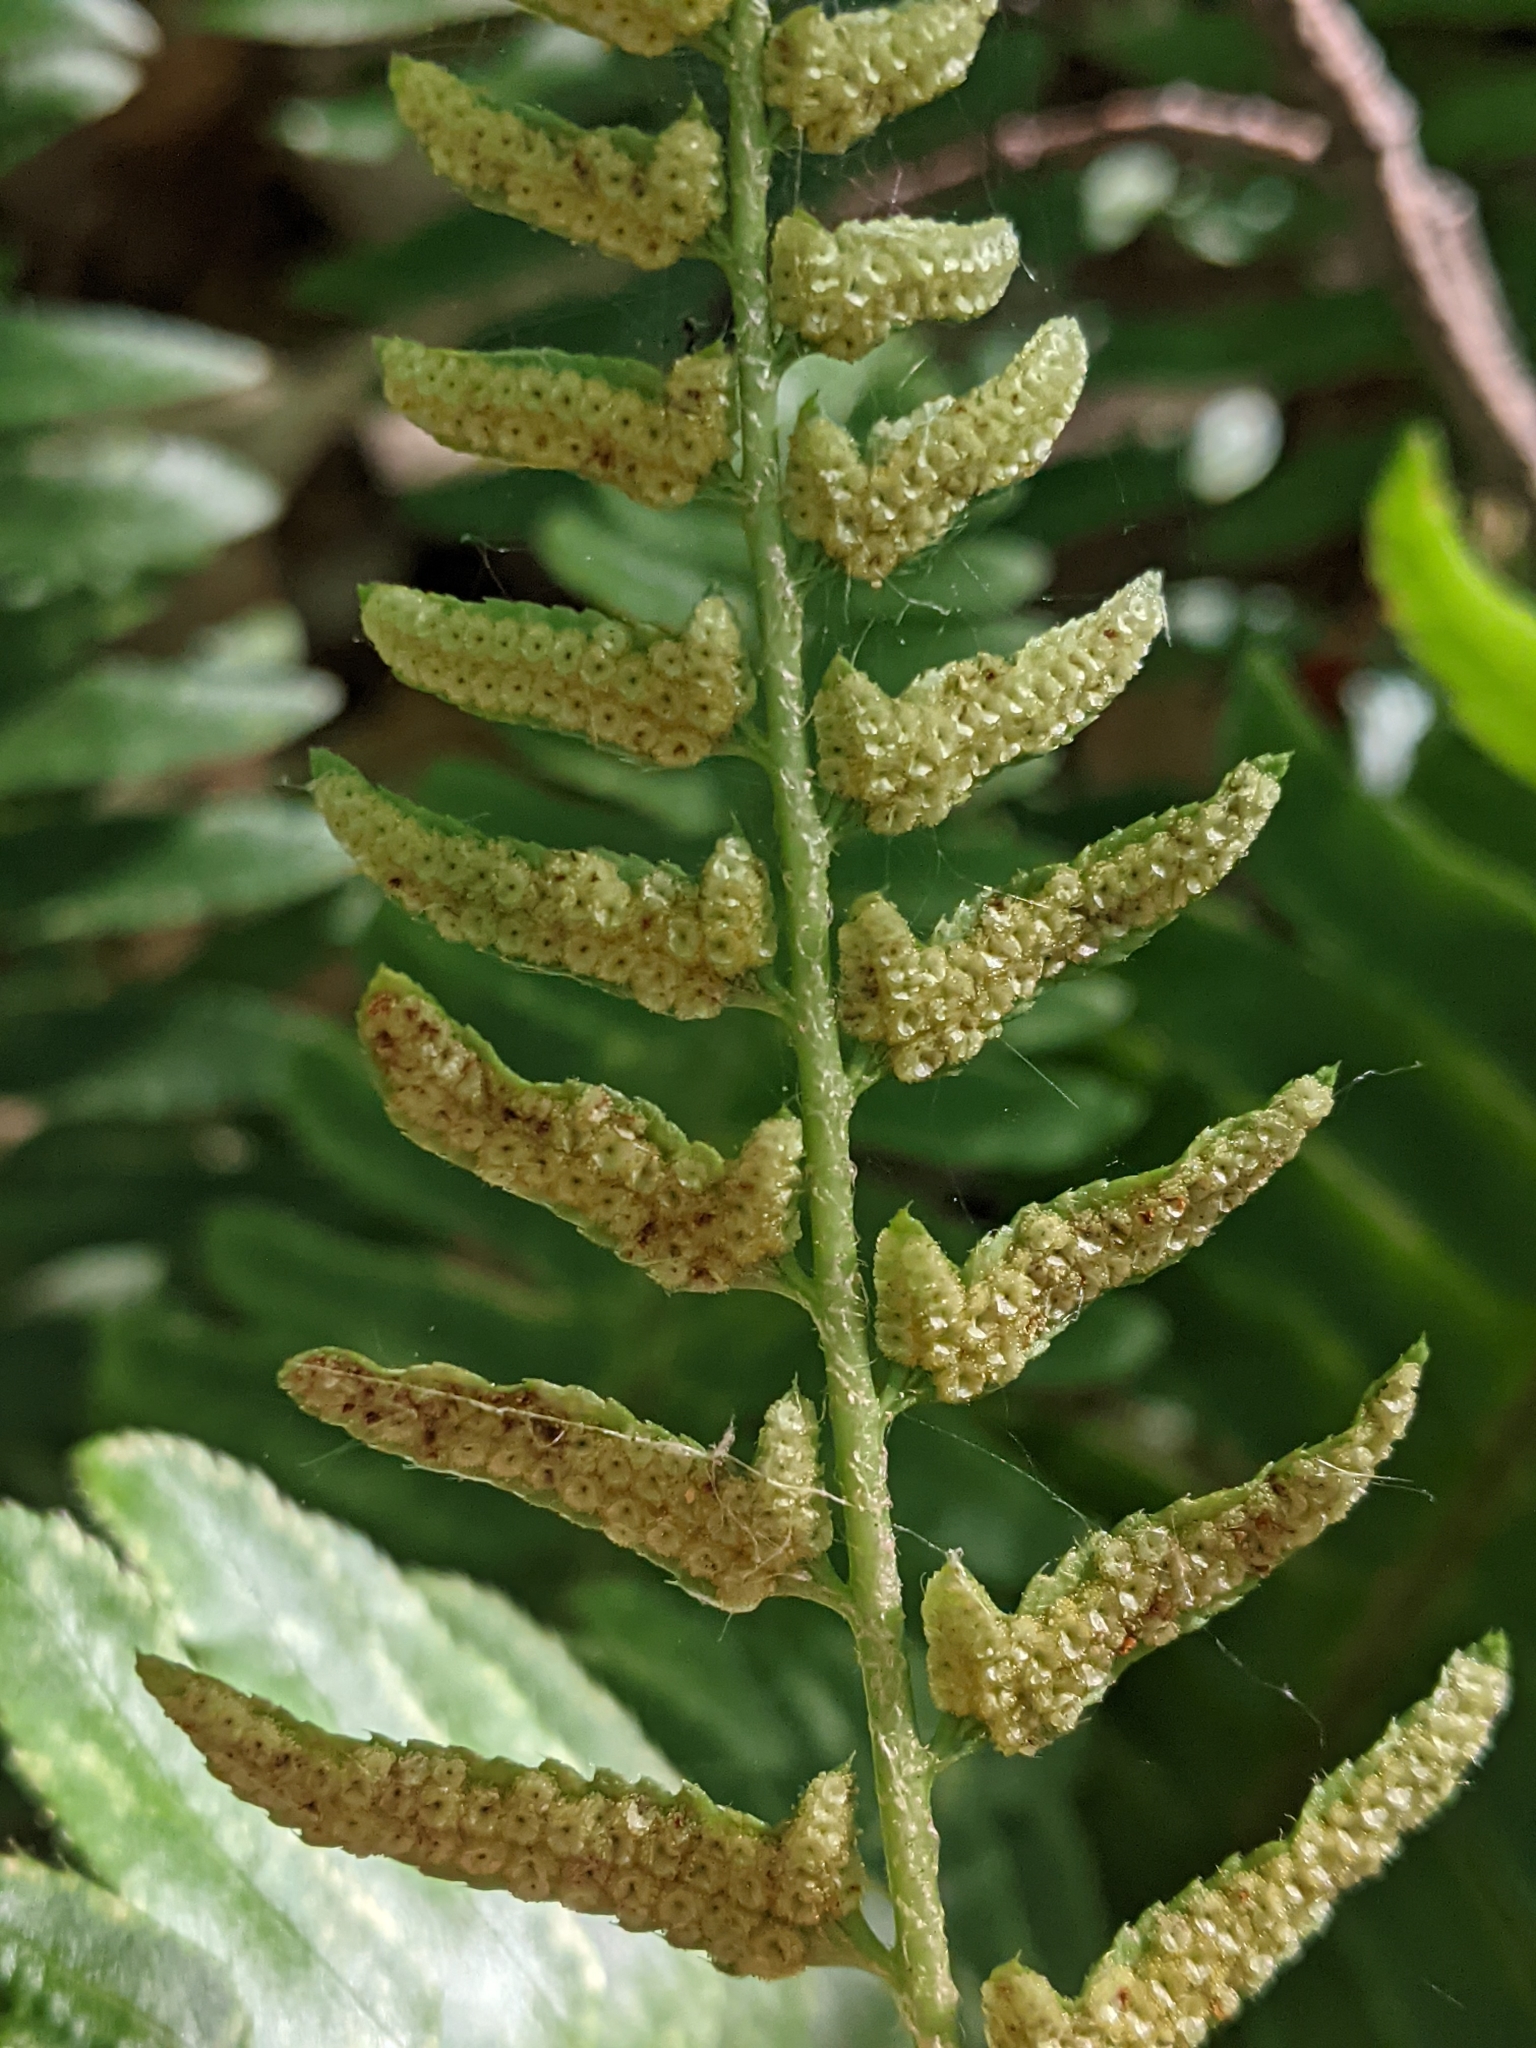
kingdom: Plantae
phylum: Tracheophyta
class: Polypodiopsida
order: Polypodiales
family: Dryopteridaceae
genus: Polystichum
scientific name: Polystichum acrostichoides
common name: Christmas fern
